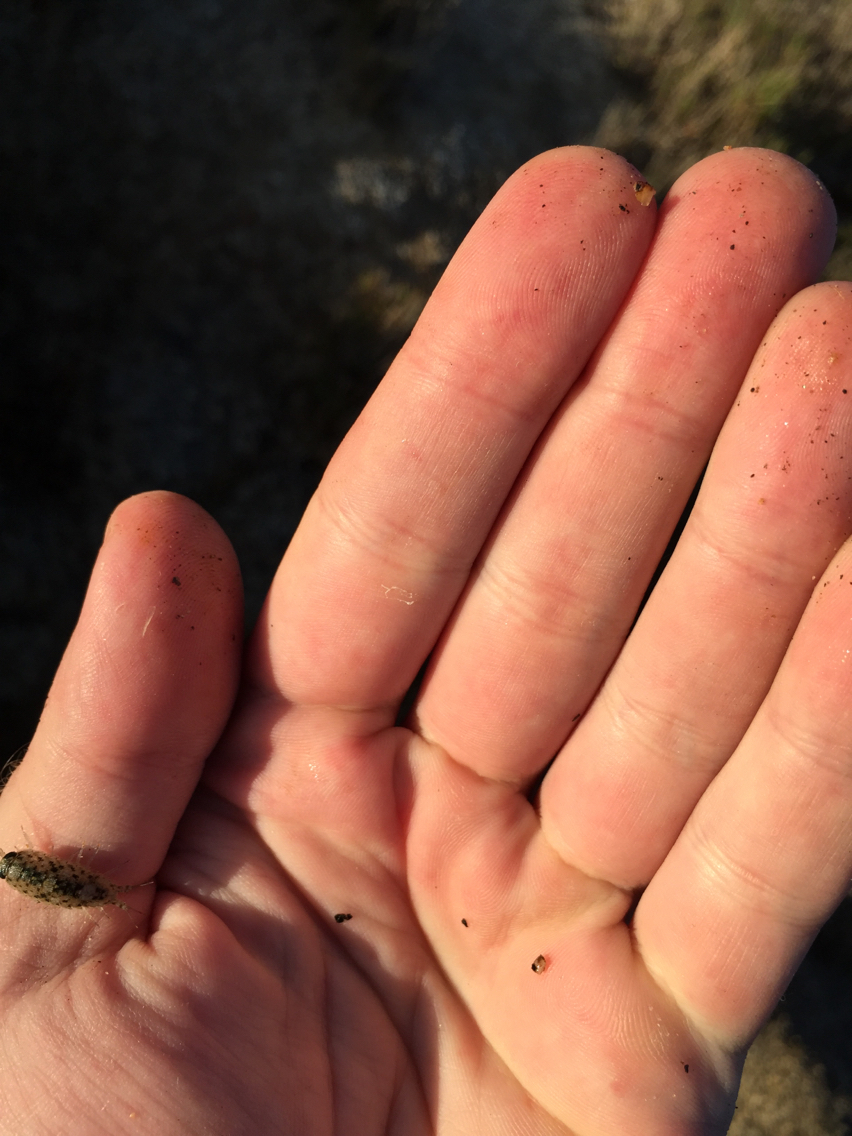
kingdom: Animalia
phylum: Arthropoda
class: Malacostraca
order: Isopoda
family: Ligiidae
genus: Ligia
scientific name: Ligia occidentalis
